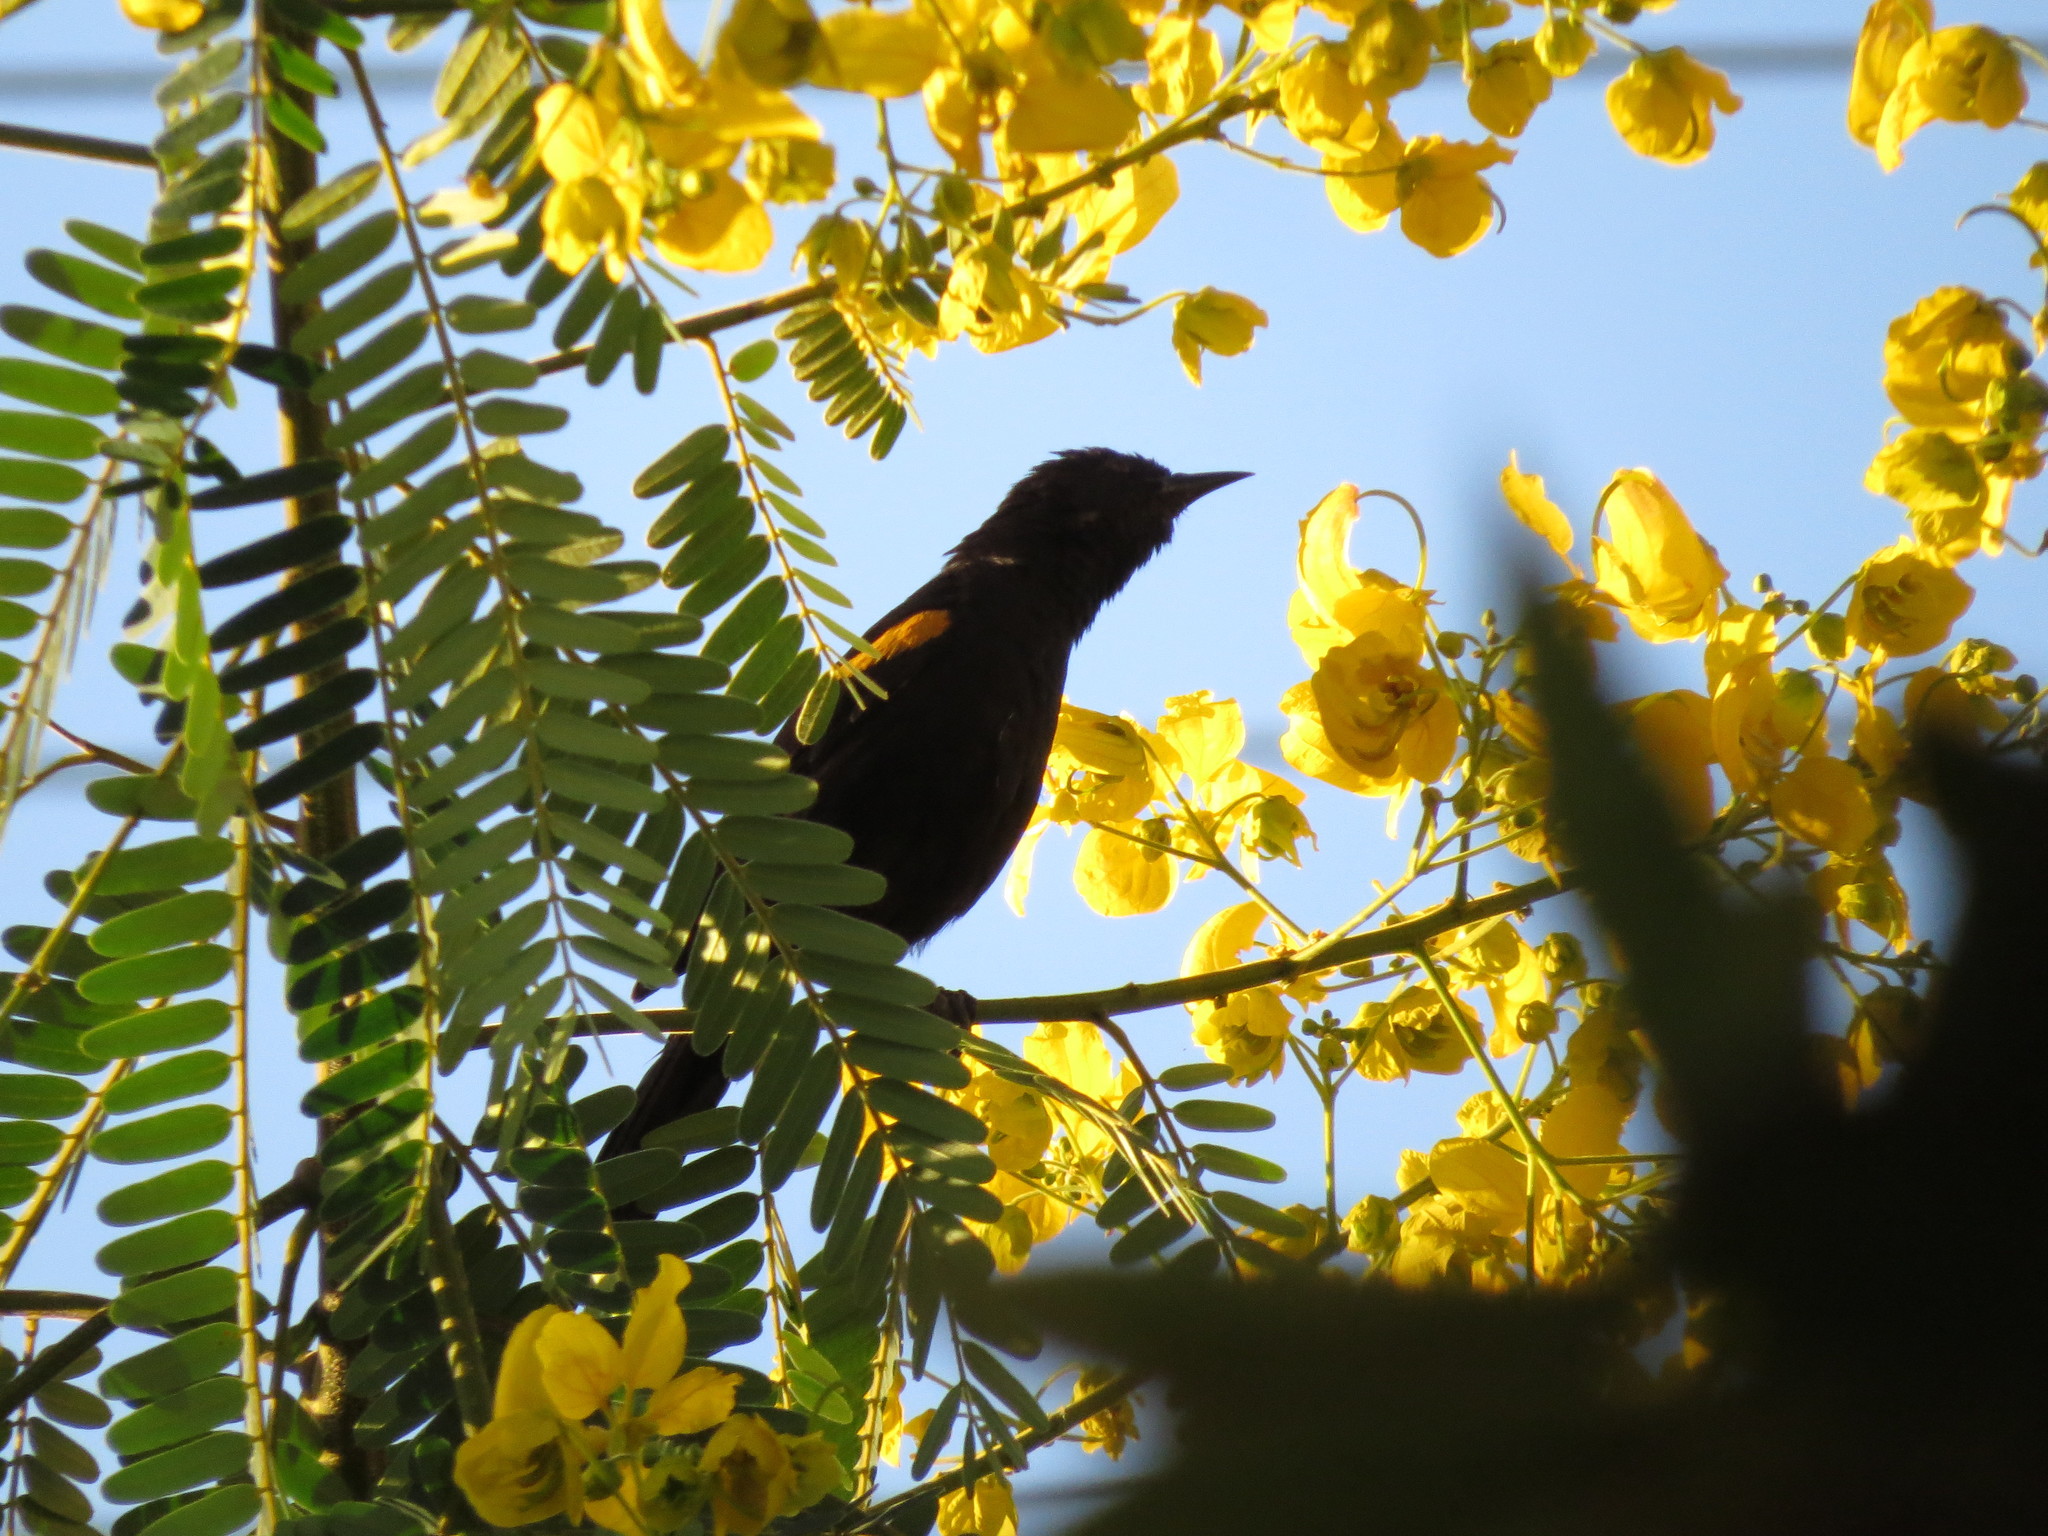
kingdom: Animalia
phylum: Chordata
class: Aves
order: Passeriformes
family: Icteridae
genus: Icterus
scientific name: Icterus cayanensis
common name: Epaulet oriole
